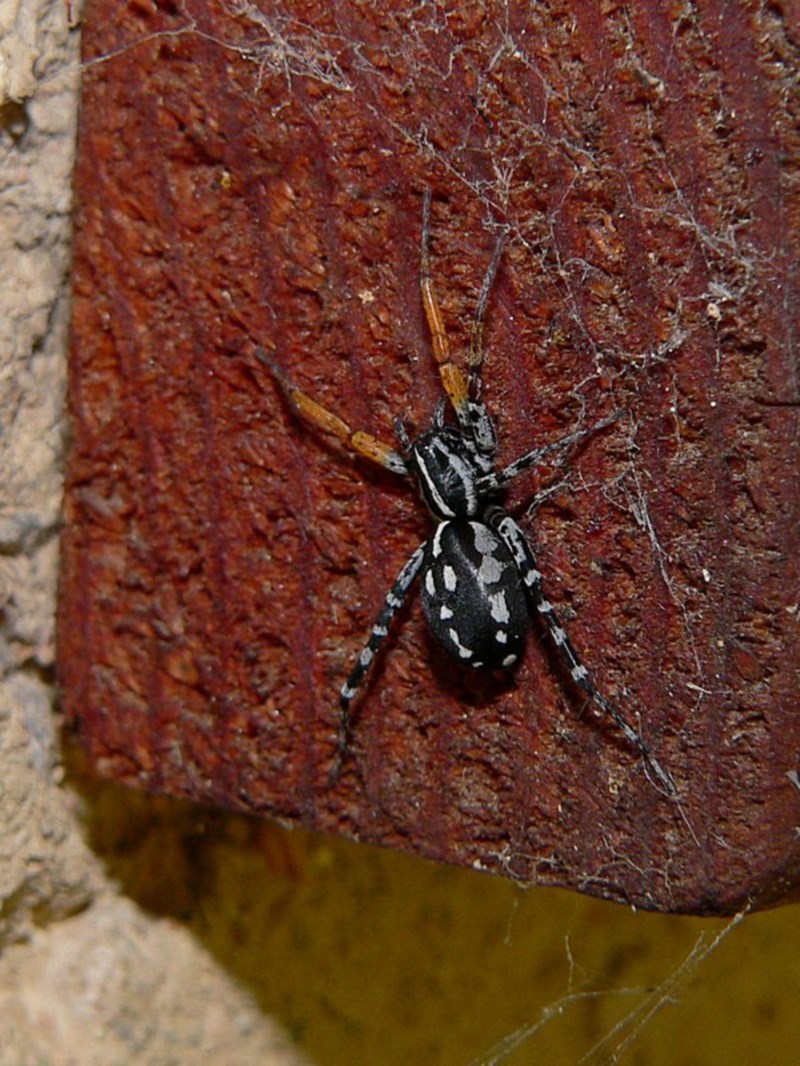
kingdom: Animalia
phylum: Arthropoda
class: Arachnida
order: Araneae
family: Corinnidae
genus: Nyssus
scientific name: Nyssus coloripes
